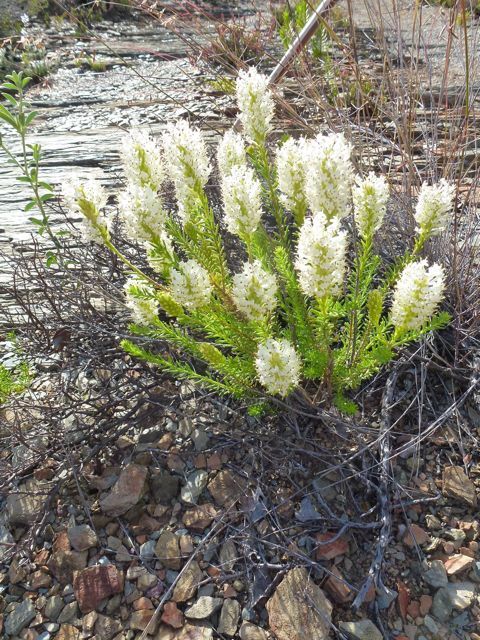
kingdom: Plantae
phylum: Tracheophyta
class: Magnoliopsida
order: Lamiales
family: Scrophulariaceae
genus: Selago
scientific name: Selago eckloniana
